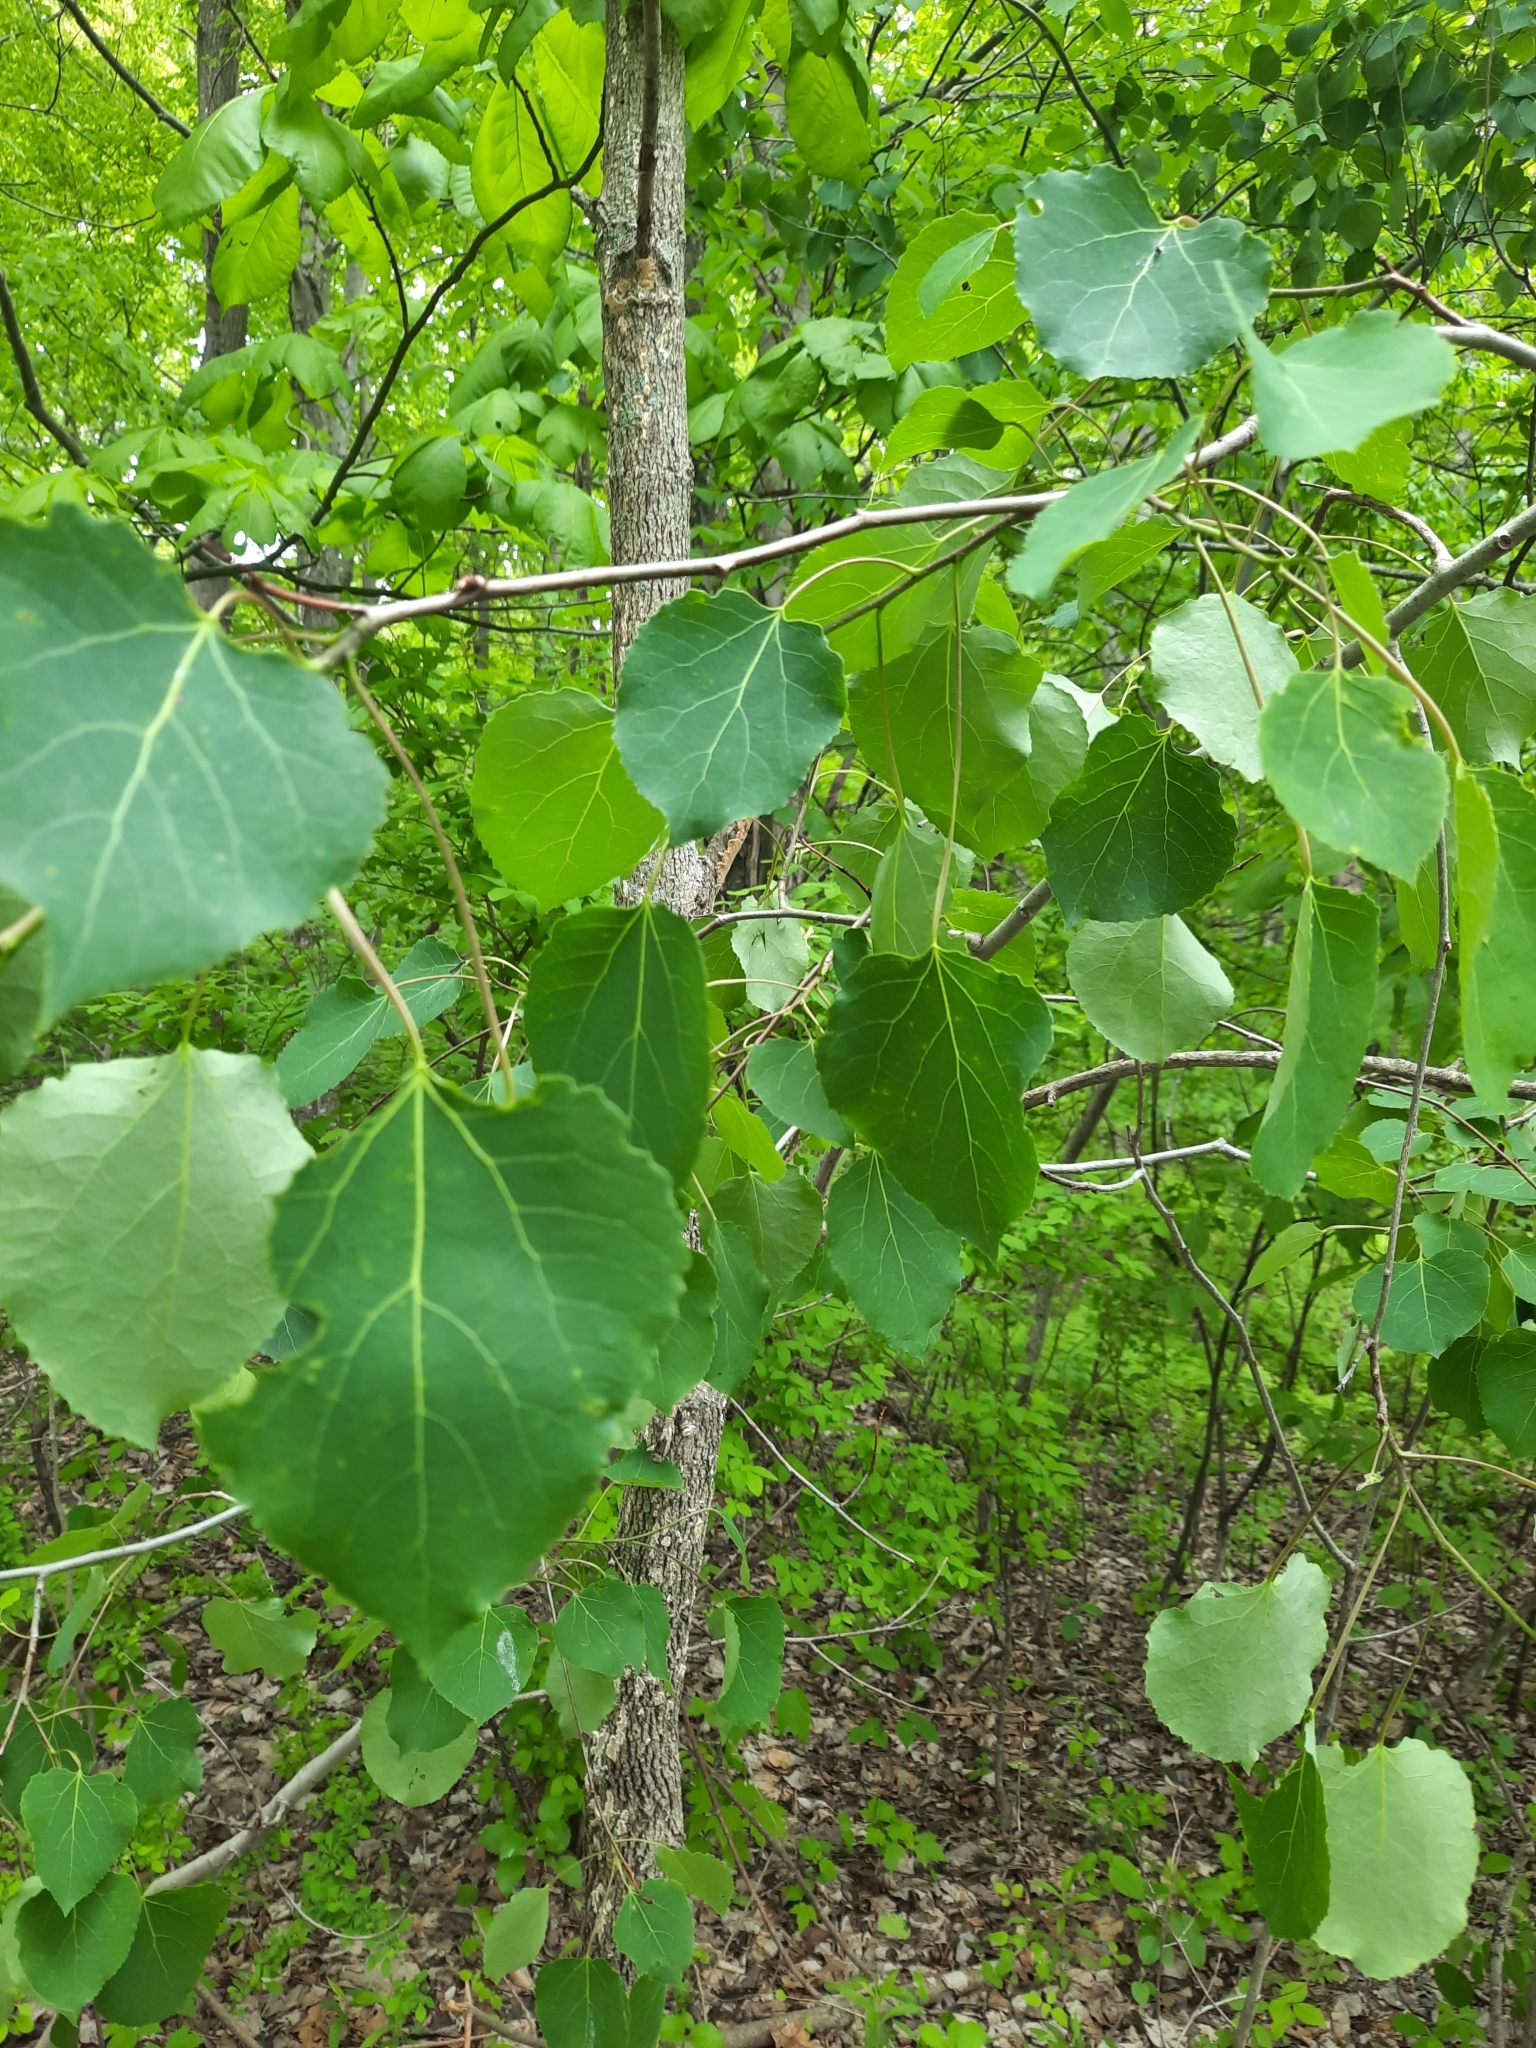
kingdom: Plantae
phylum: Tracheophyta
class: Magnoliopsida
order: Malpighiales
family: Salicaceae
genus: Populus
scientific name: Populus tremuloides
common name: Quaking aspen
